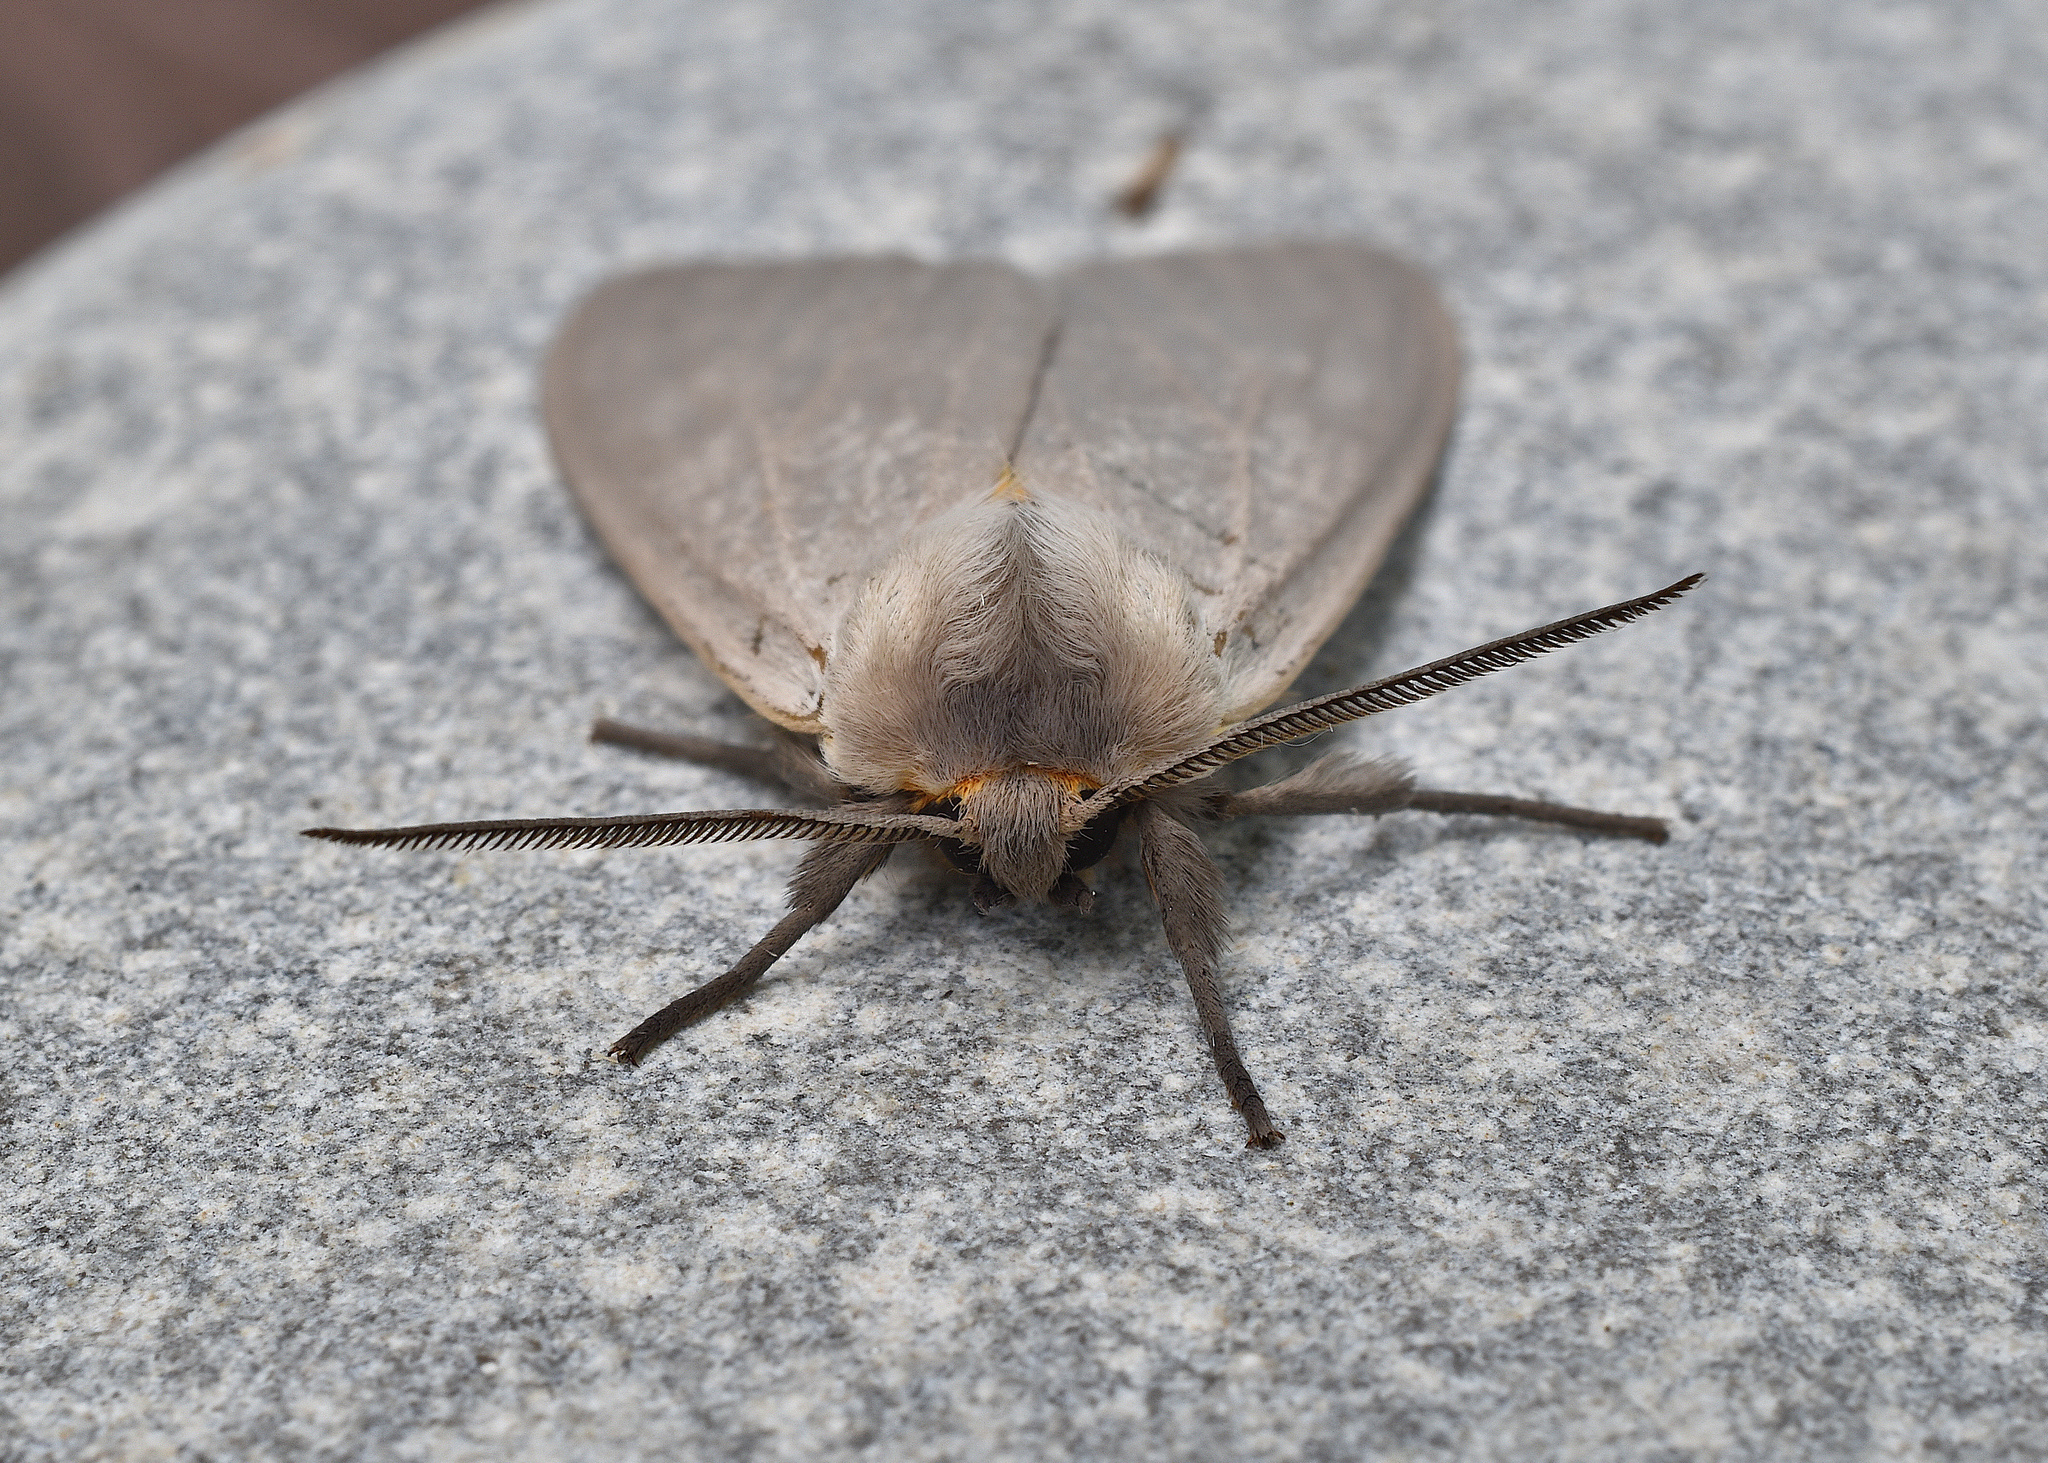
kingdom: Animalia
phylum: Arthropoda
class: Insecta
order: Lepidoptera
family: Erebidae
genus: Euchaetes
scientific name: Euchaetes egle
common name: Milkweed tussock moth
